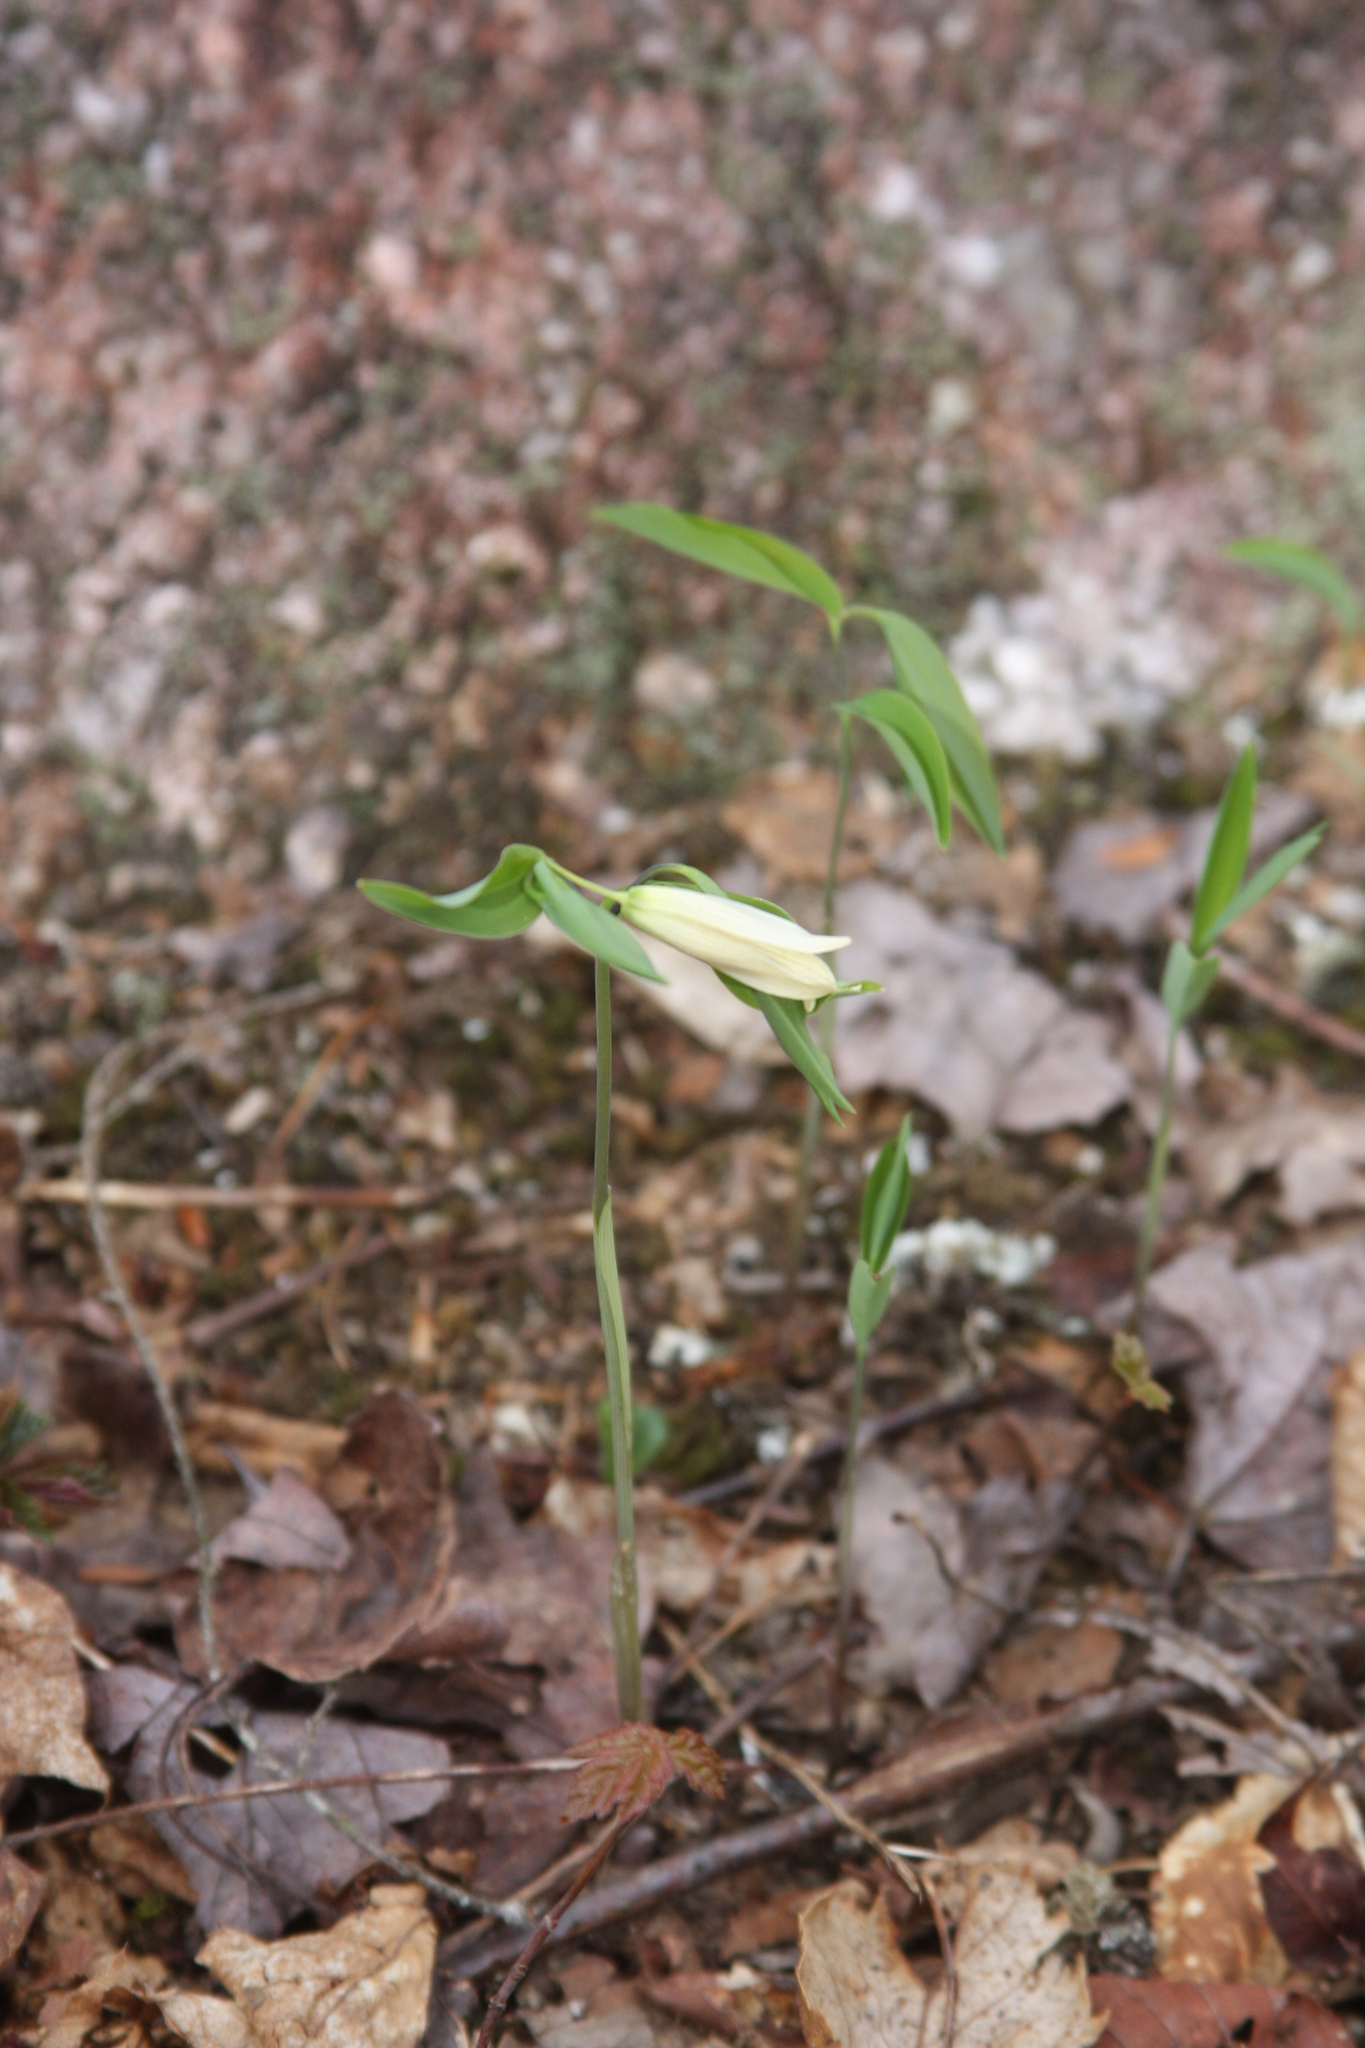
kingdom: Plantae
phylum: Tracheophyta
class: Liliopsida
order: Liliales
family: Colchicaceae
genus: Uvularia
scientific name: Uvularia sessilifolia
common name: Straw-lily
